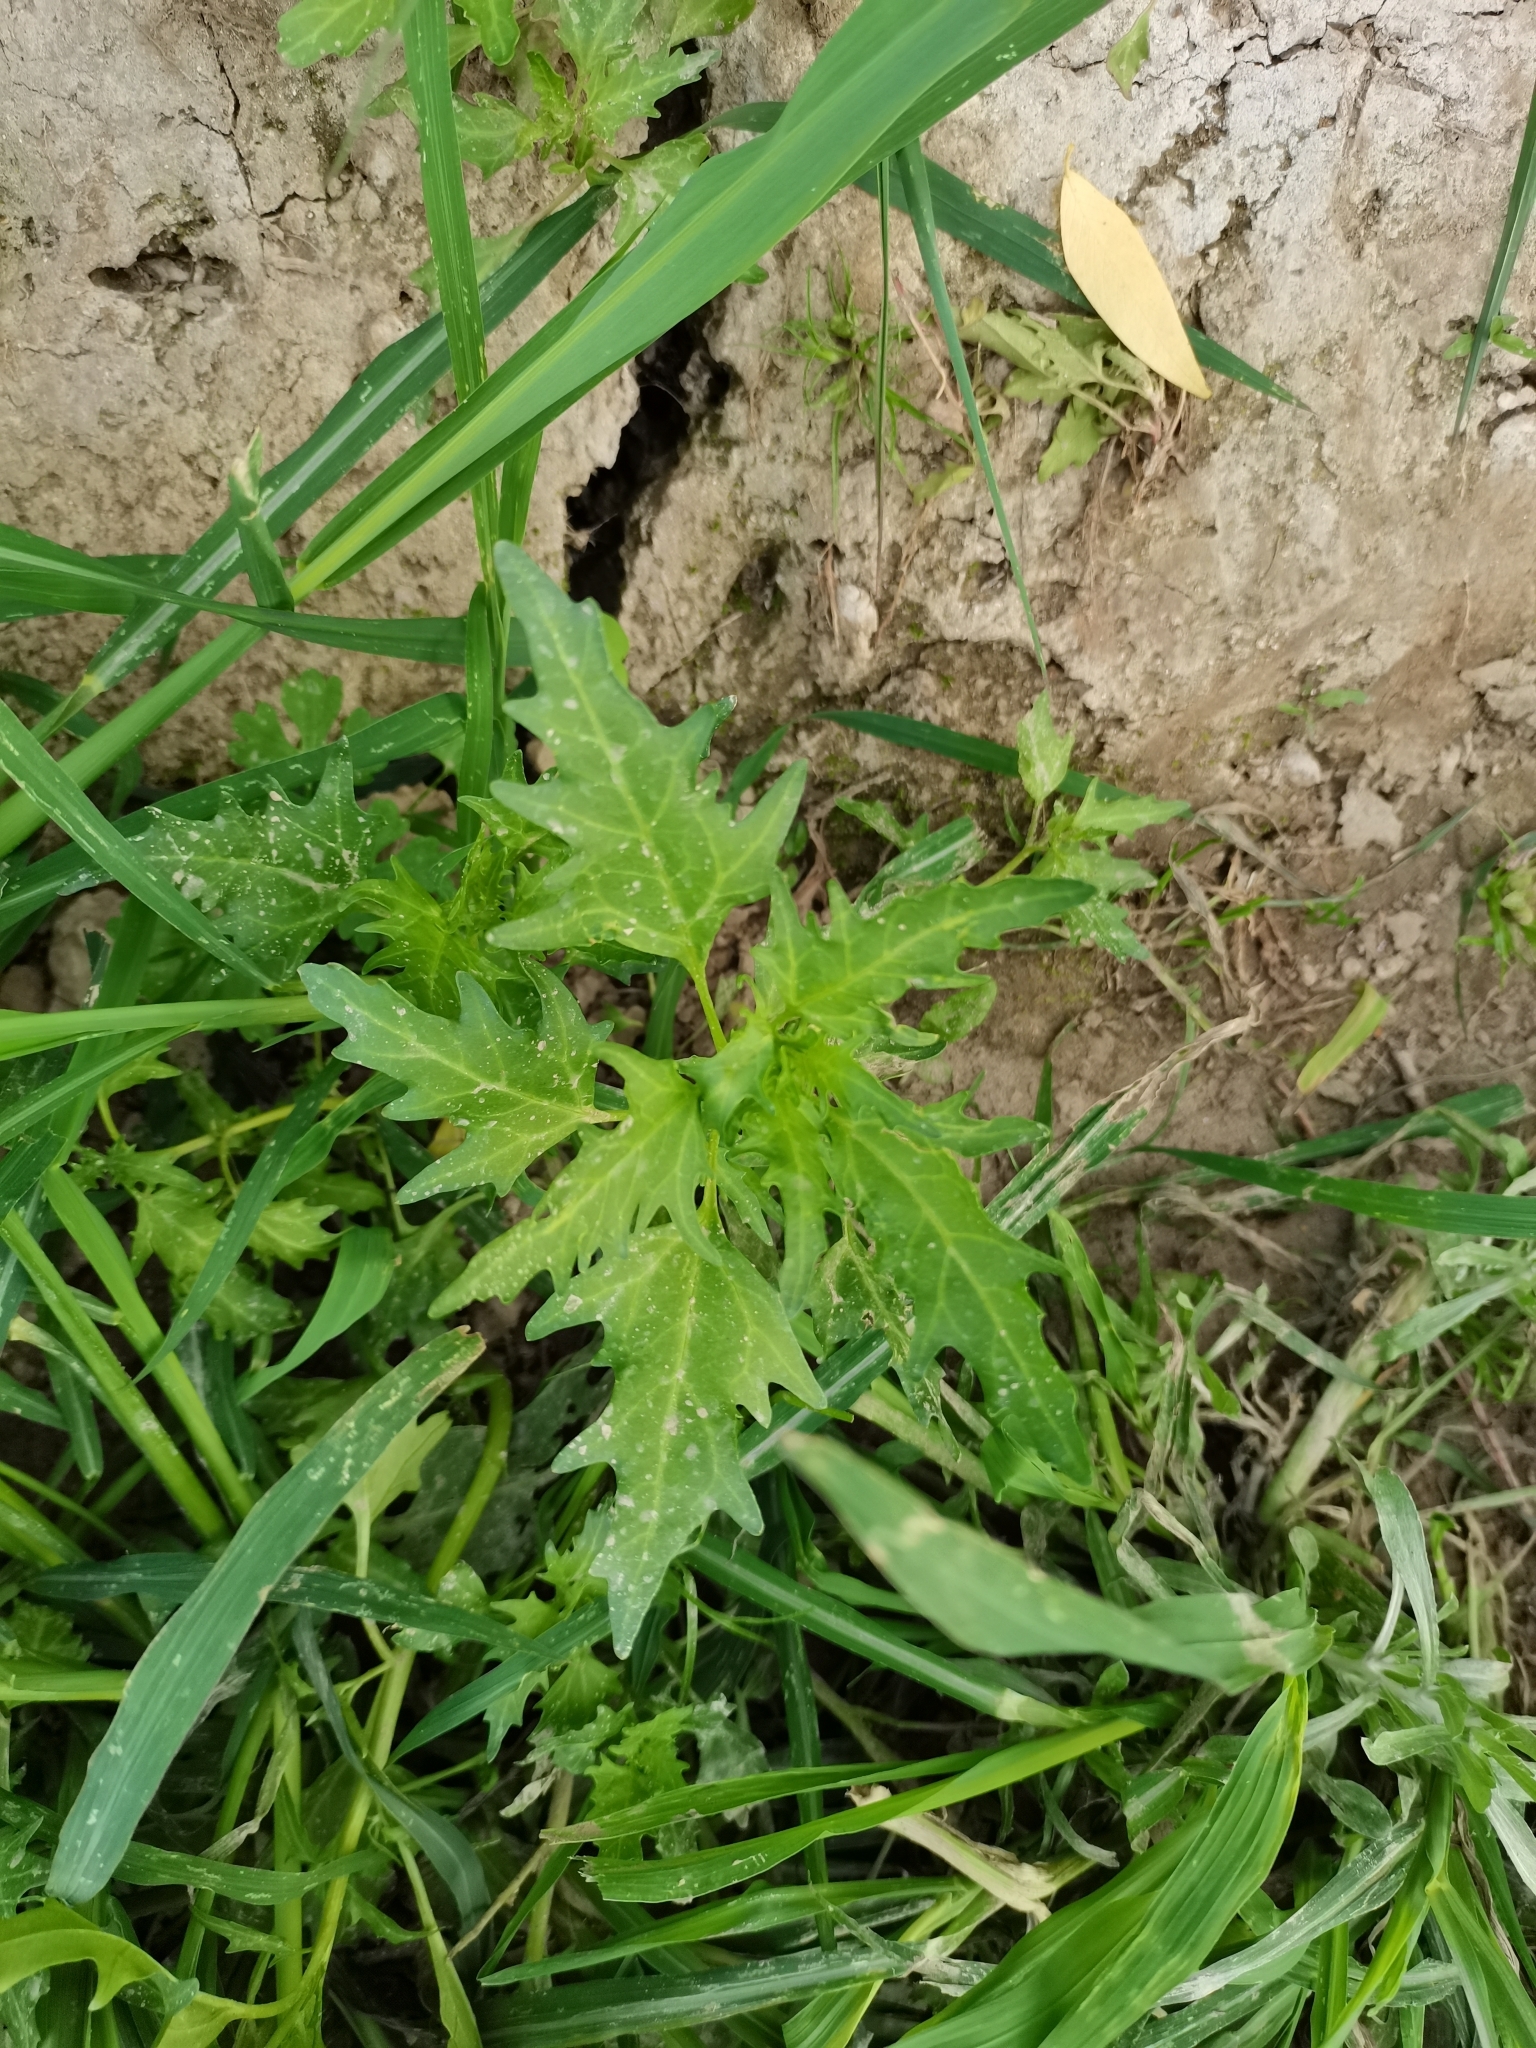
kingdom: Plantae
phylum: Tracheophyta
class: Magnoliopsida
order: Caryophyllales
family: Amaranthaceae
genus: Oxybasis
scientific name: Oxybasis rubra
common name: Red goosefoot
